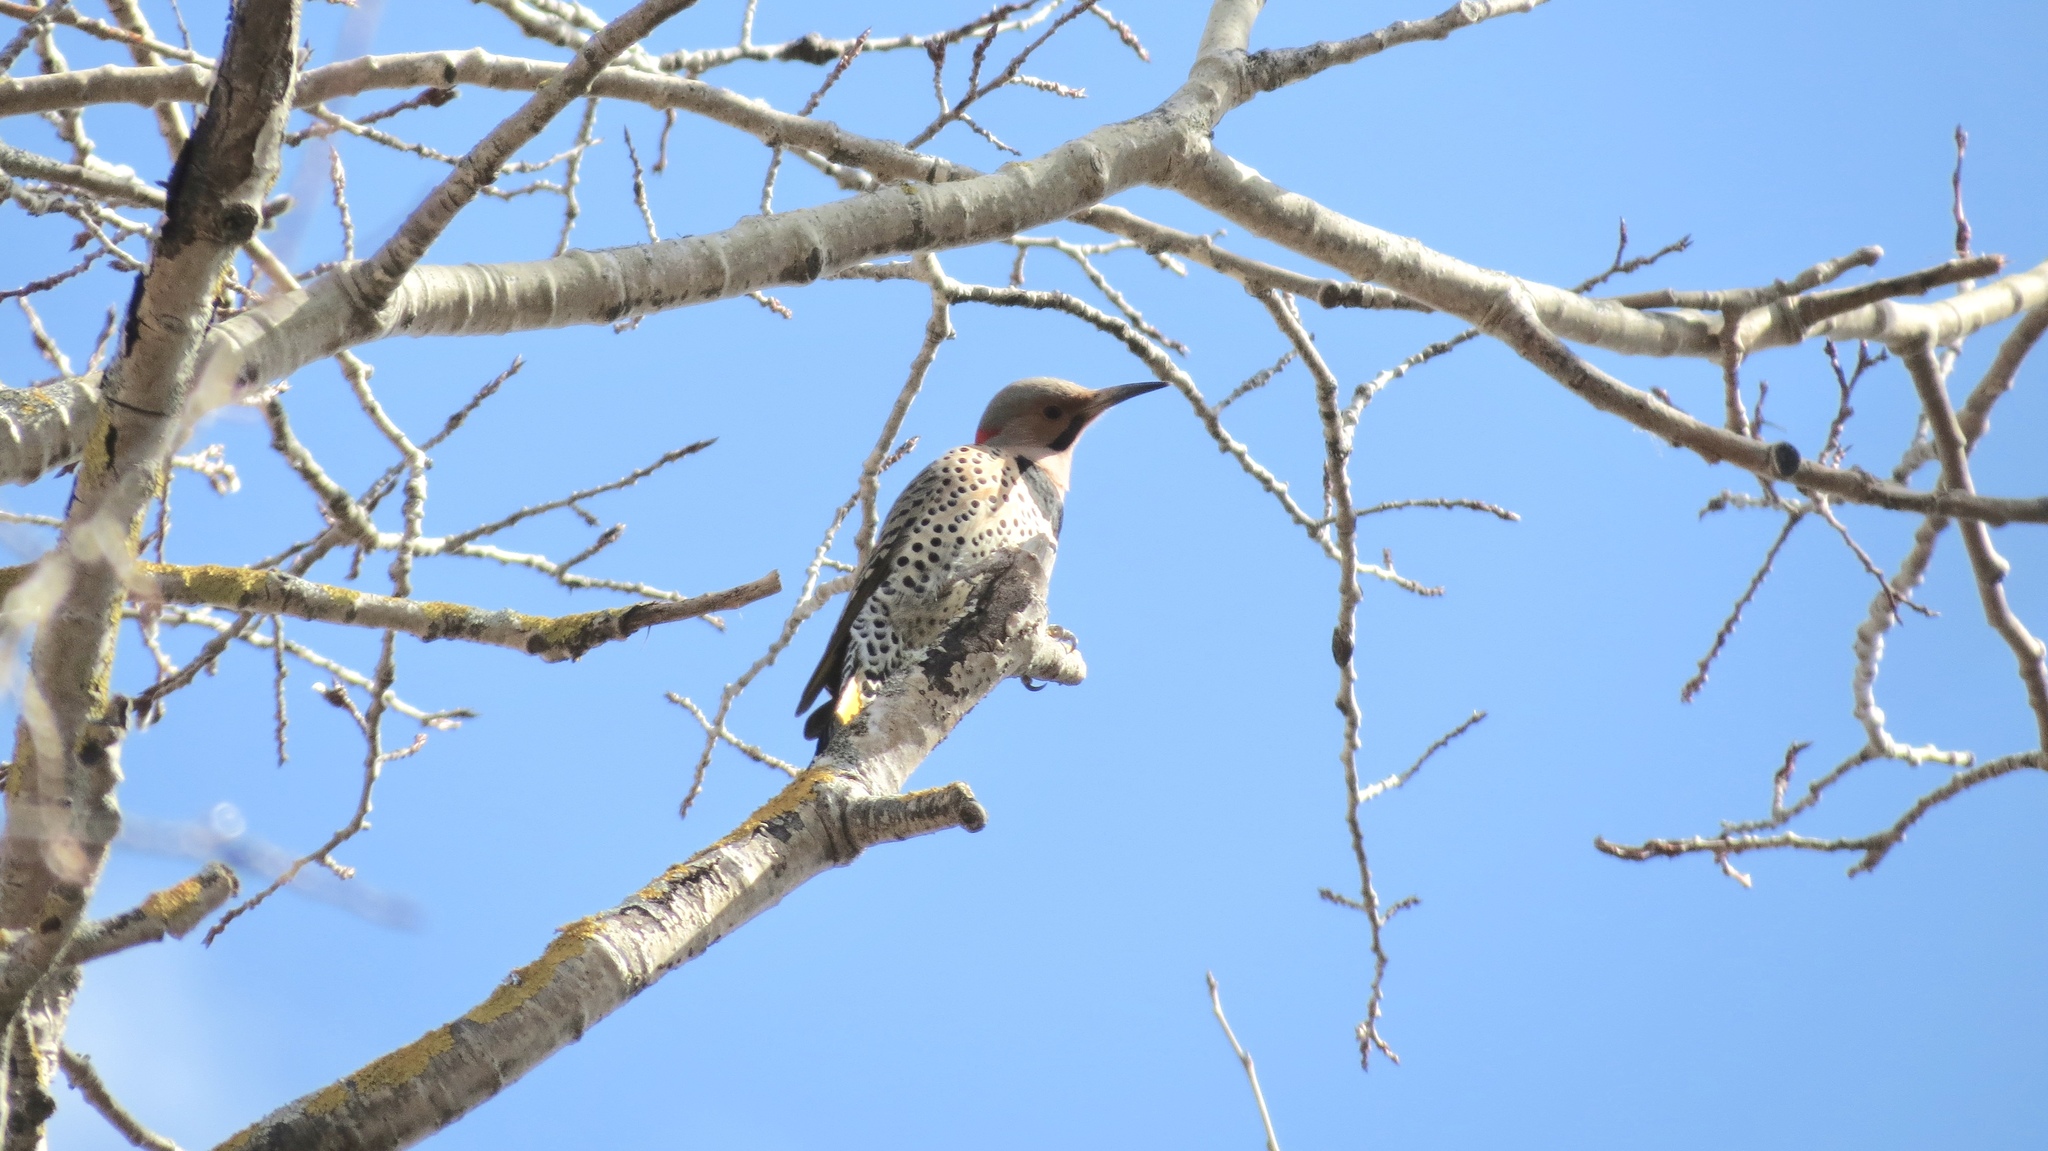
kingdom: Animalia
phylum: Chordata
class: Aves
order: Piciformes
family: Picidae
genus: Colaptes
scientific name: Colaptes auratus
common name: Northern flicker
